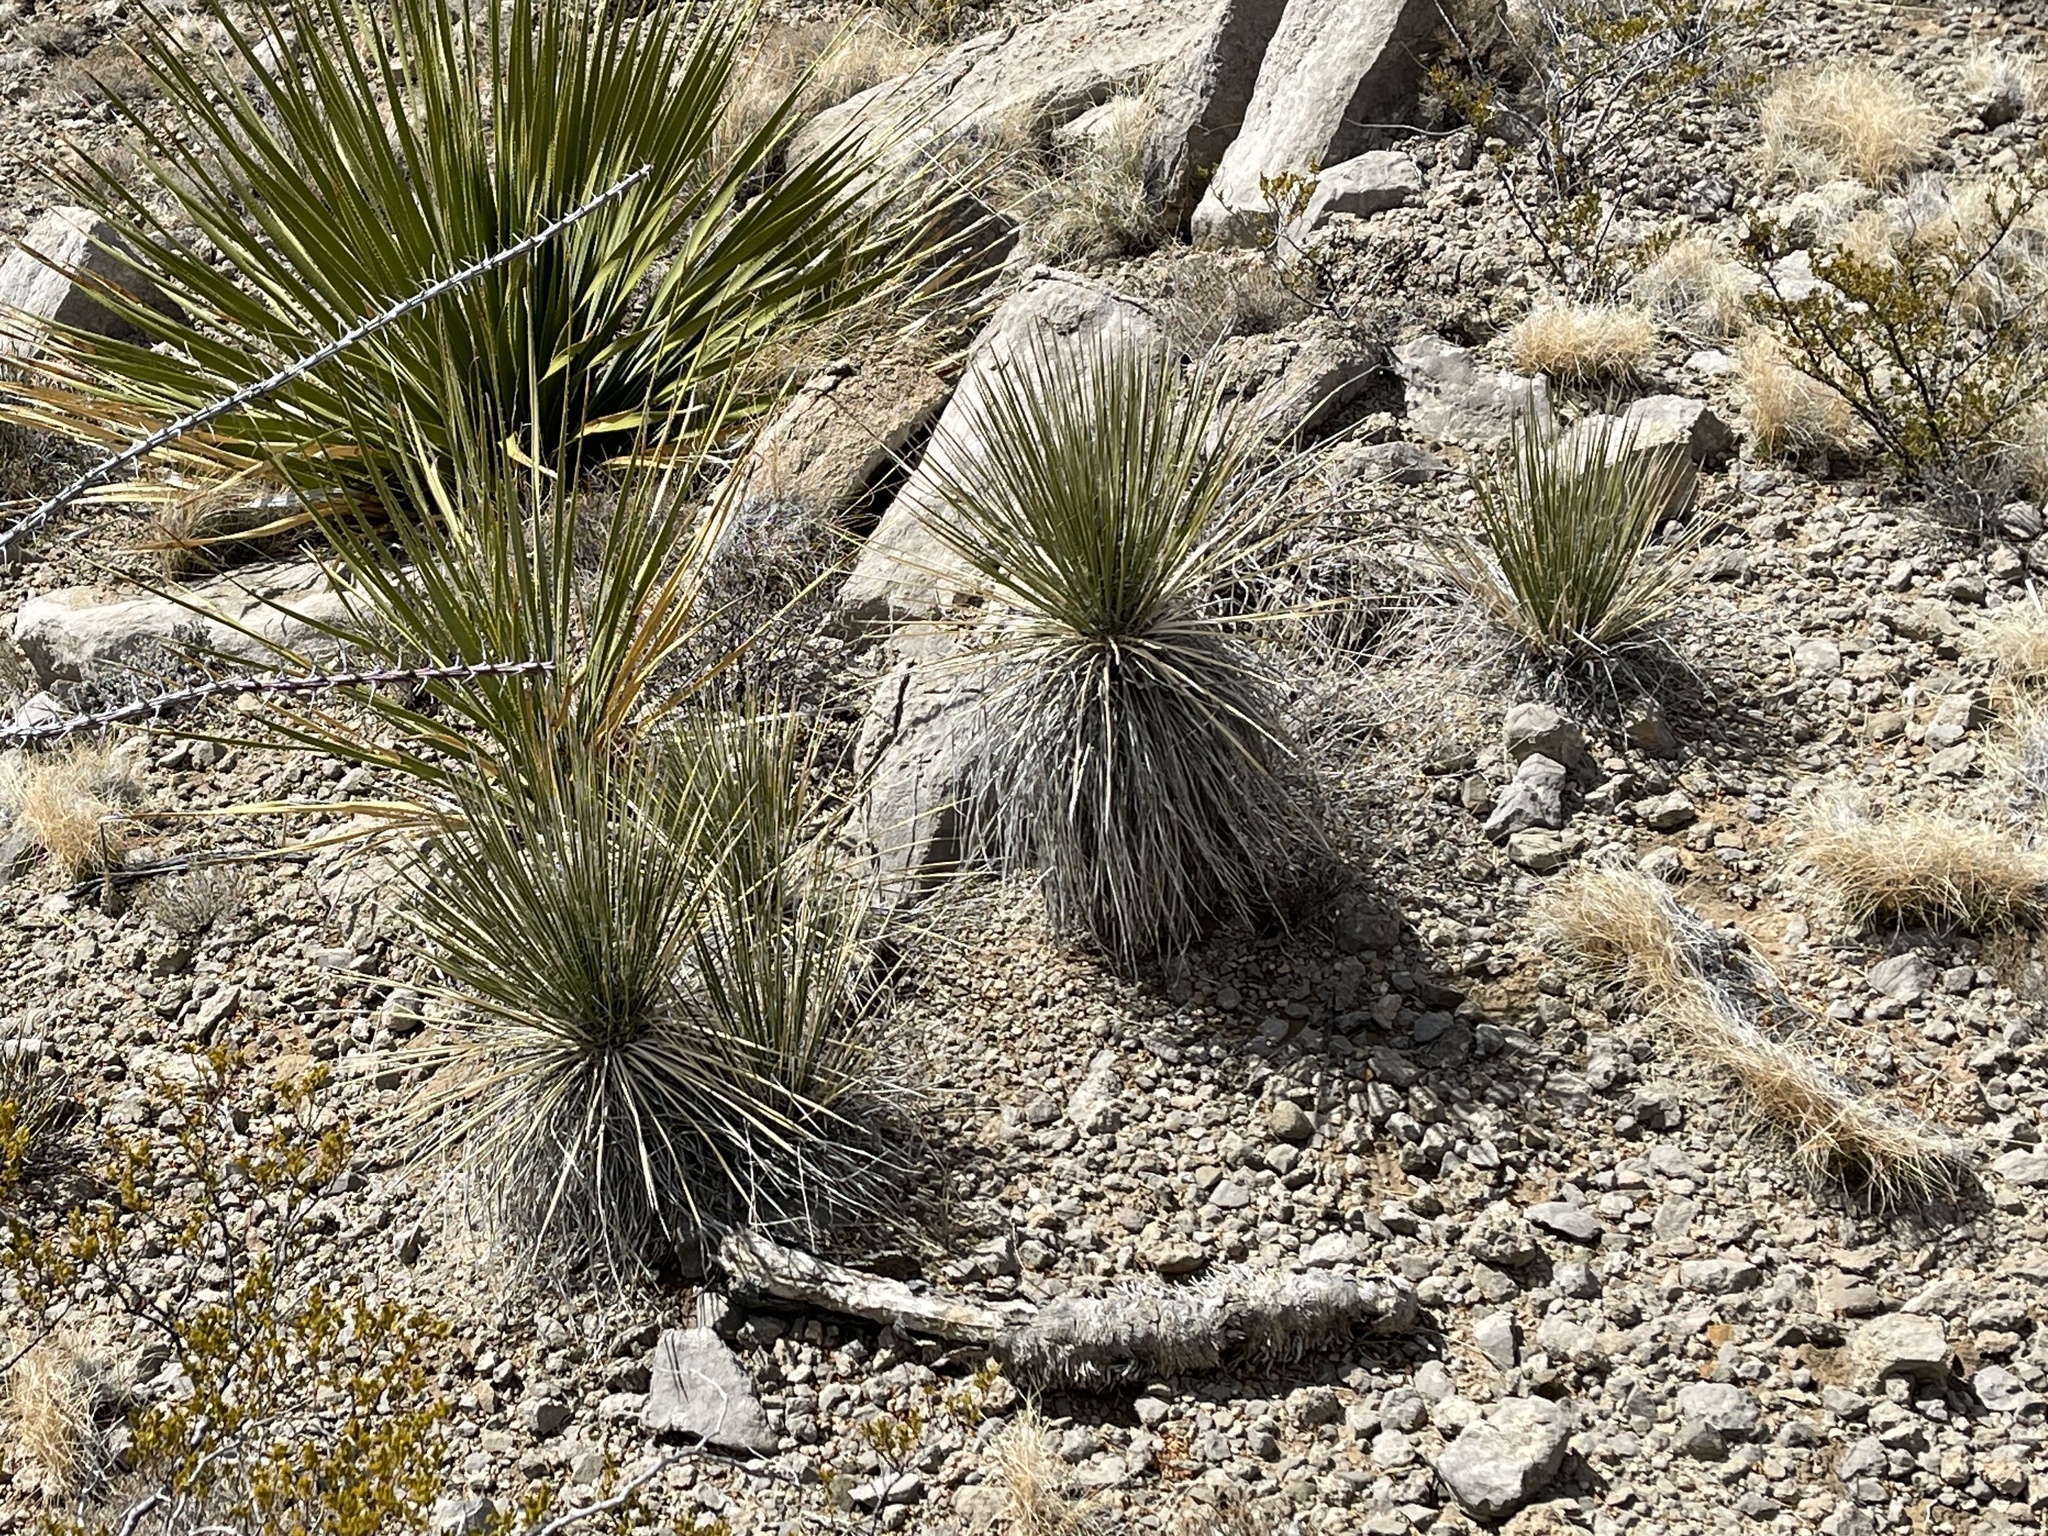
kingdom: Plantae
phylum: Tracheophyta
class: Liliopsida
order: Asparagales
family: Asparagaceae
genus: Yucca
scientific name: Yucca elata
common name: Palmella
